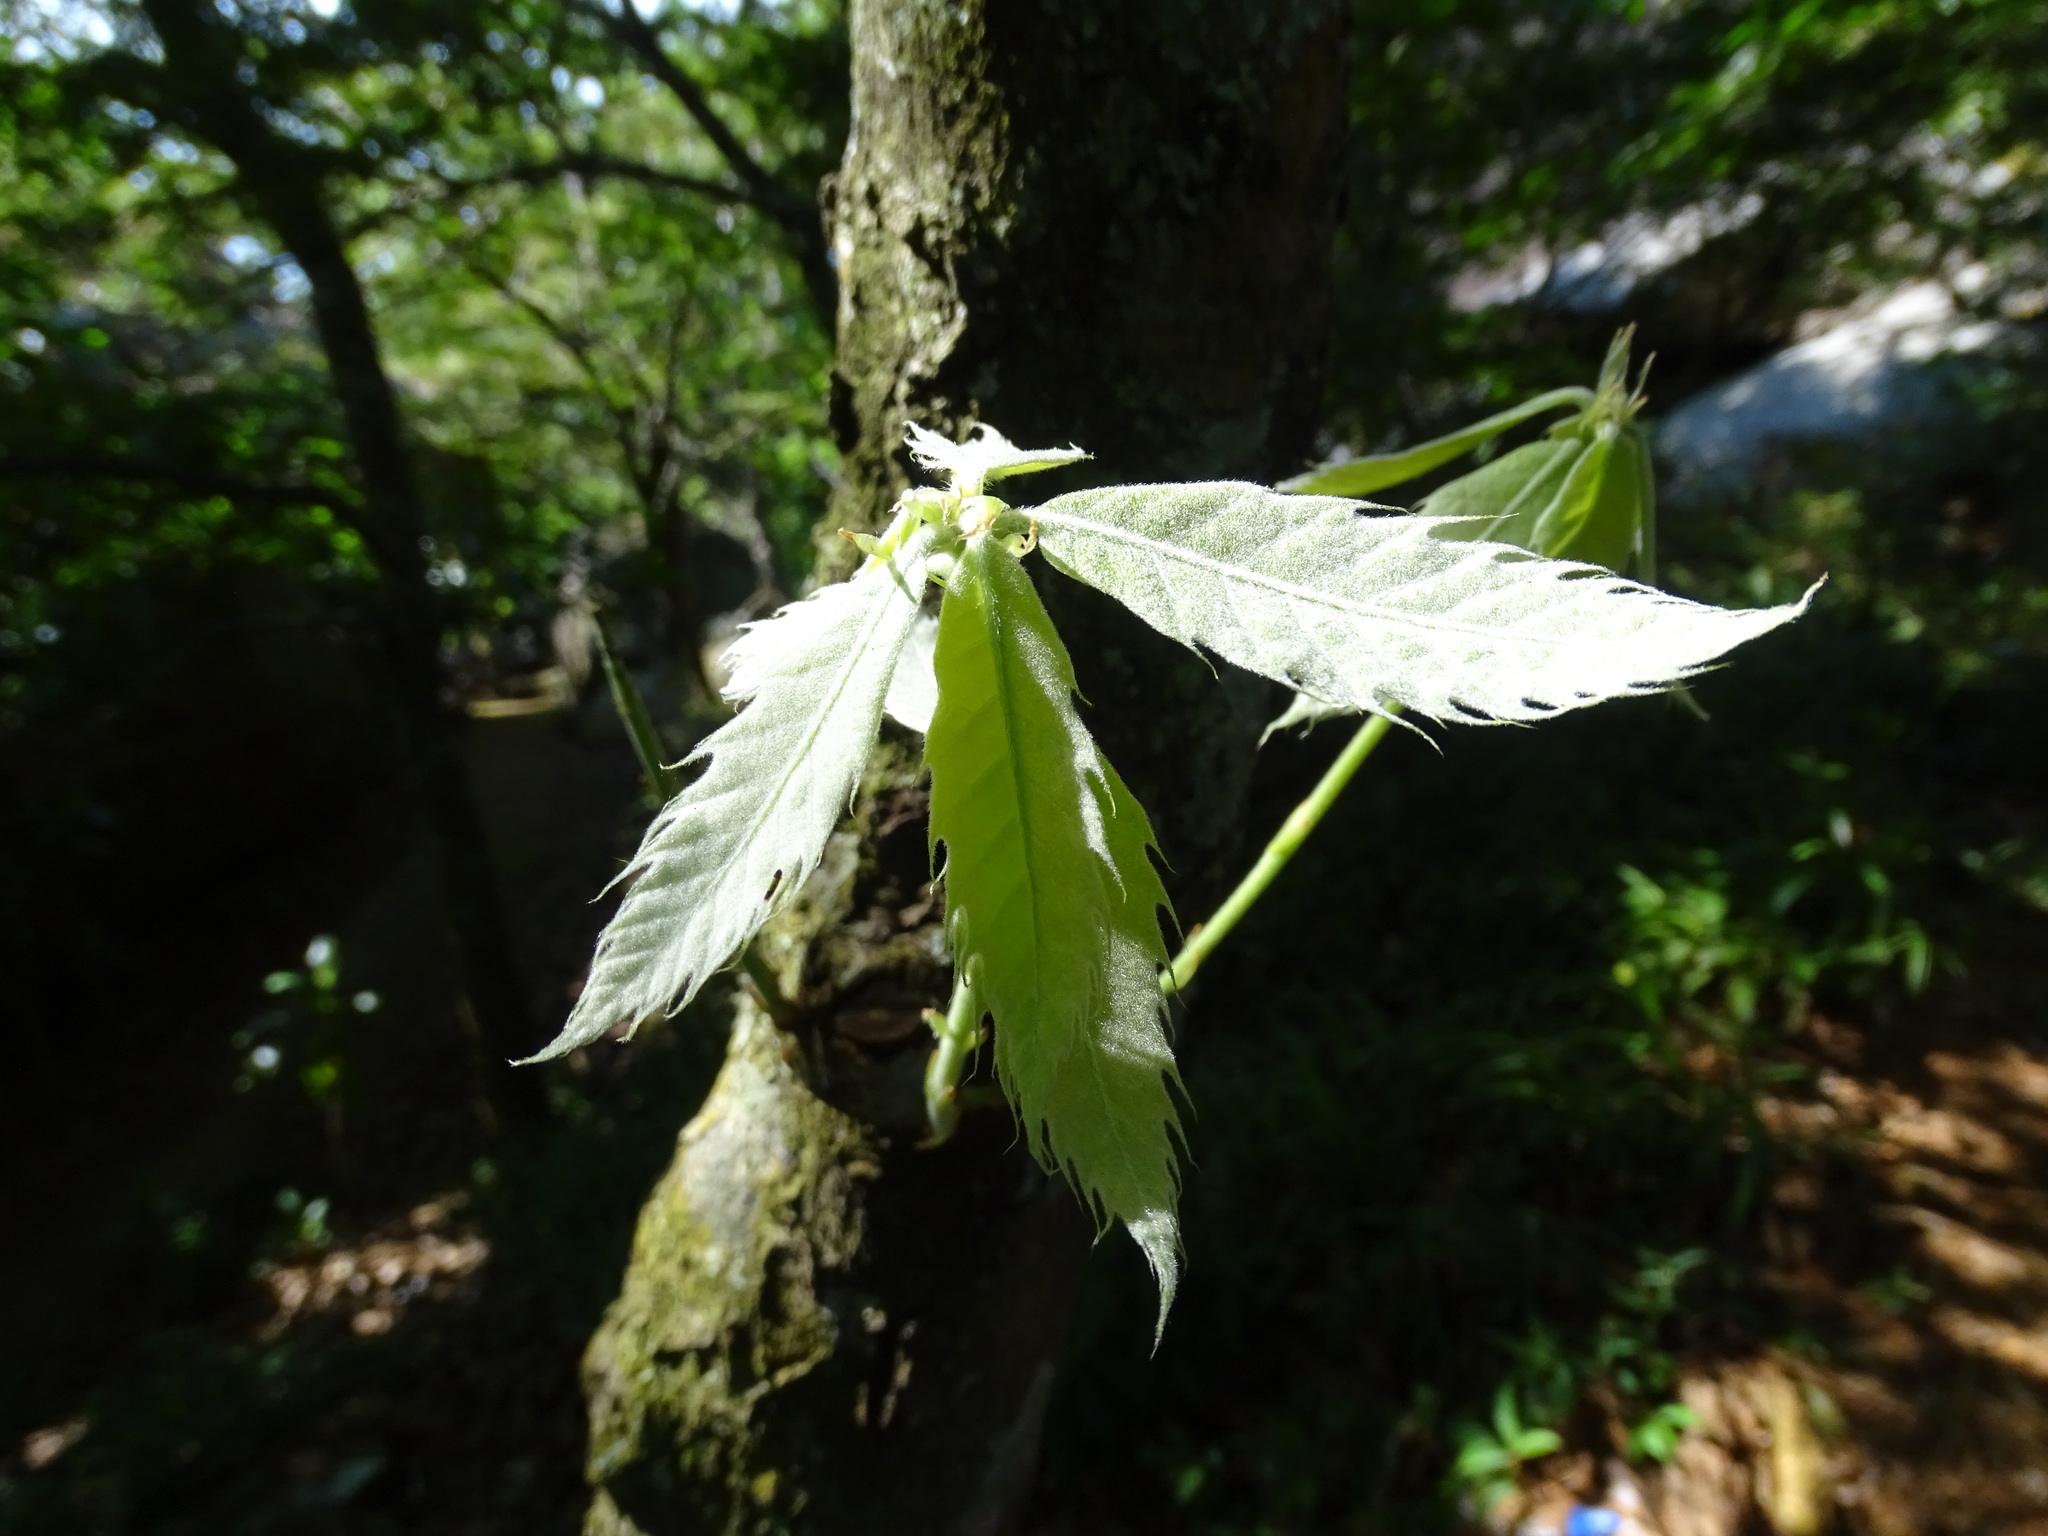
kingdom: Plantae
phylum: Tracheophyta
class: Magnoliopsida
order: Fagales
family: Fagaceae
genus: Quercus
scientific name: Quercus corrugata
